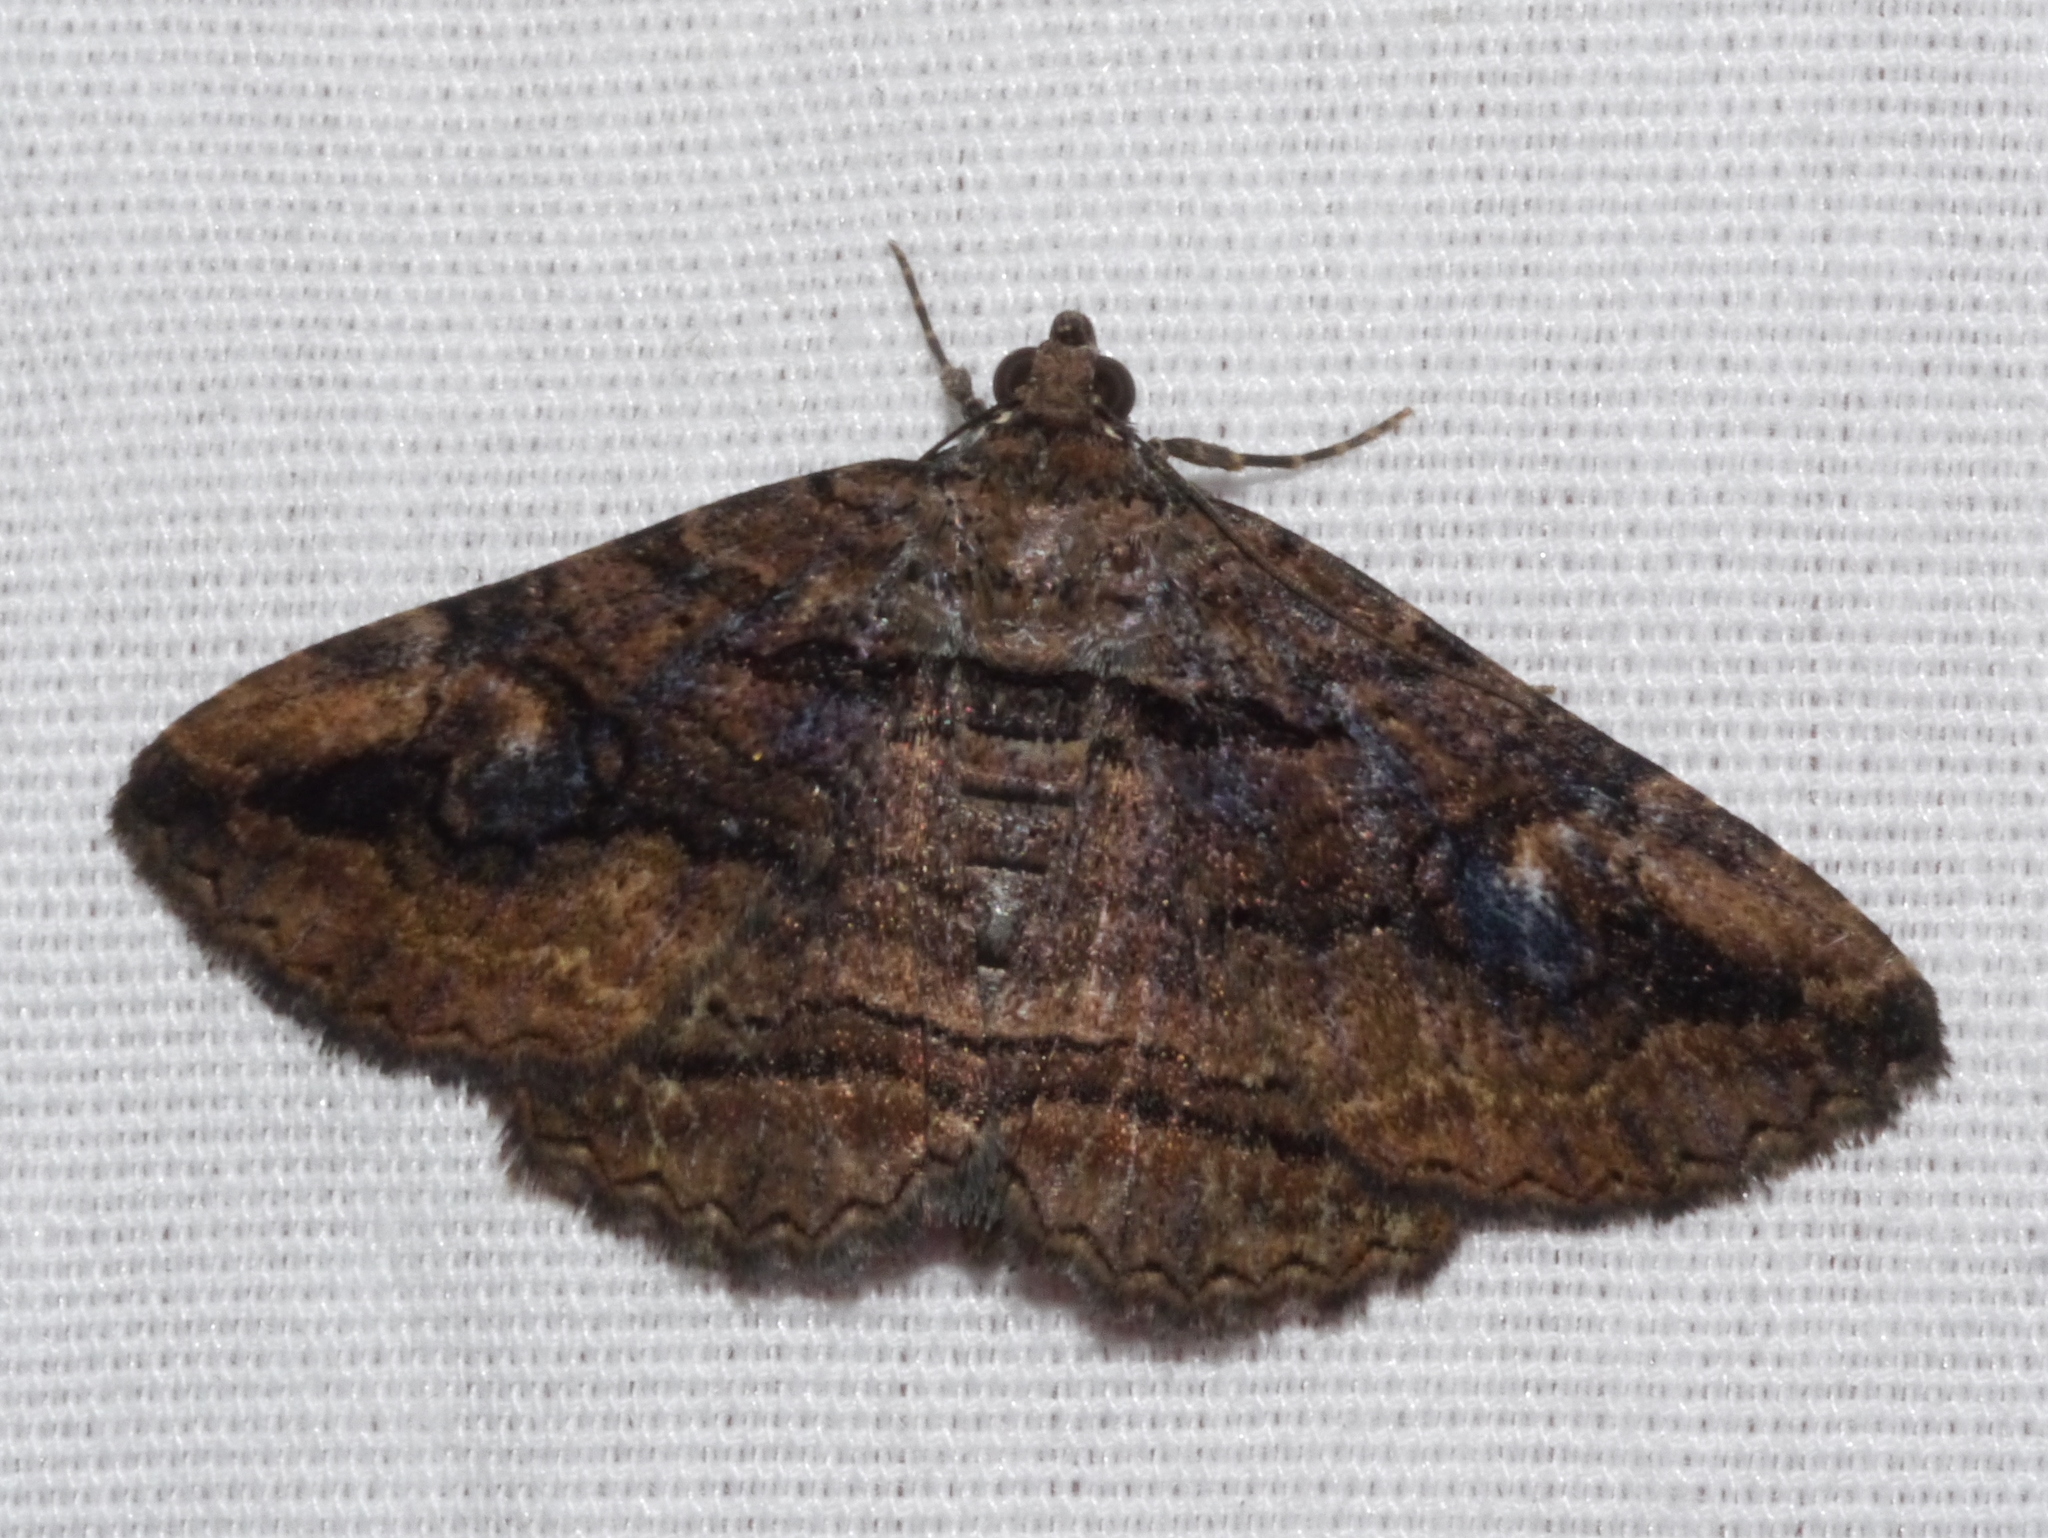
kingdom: Animalia
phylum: Arthropoda
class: Insecta
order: Lepidoptera
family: Erebidae
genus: Zaleops
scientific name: Zaleops umbrina
